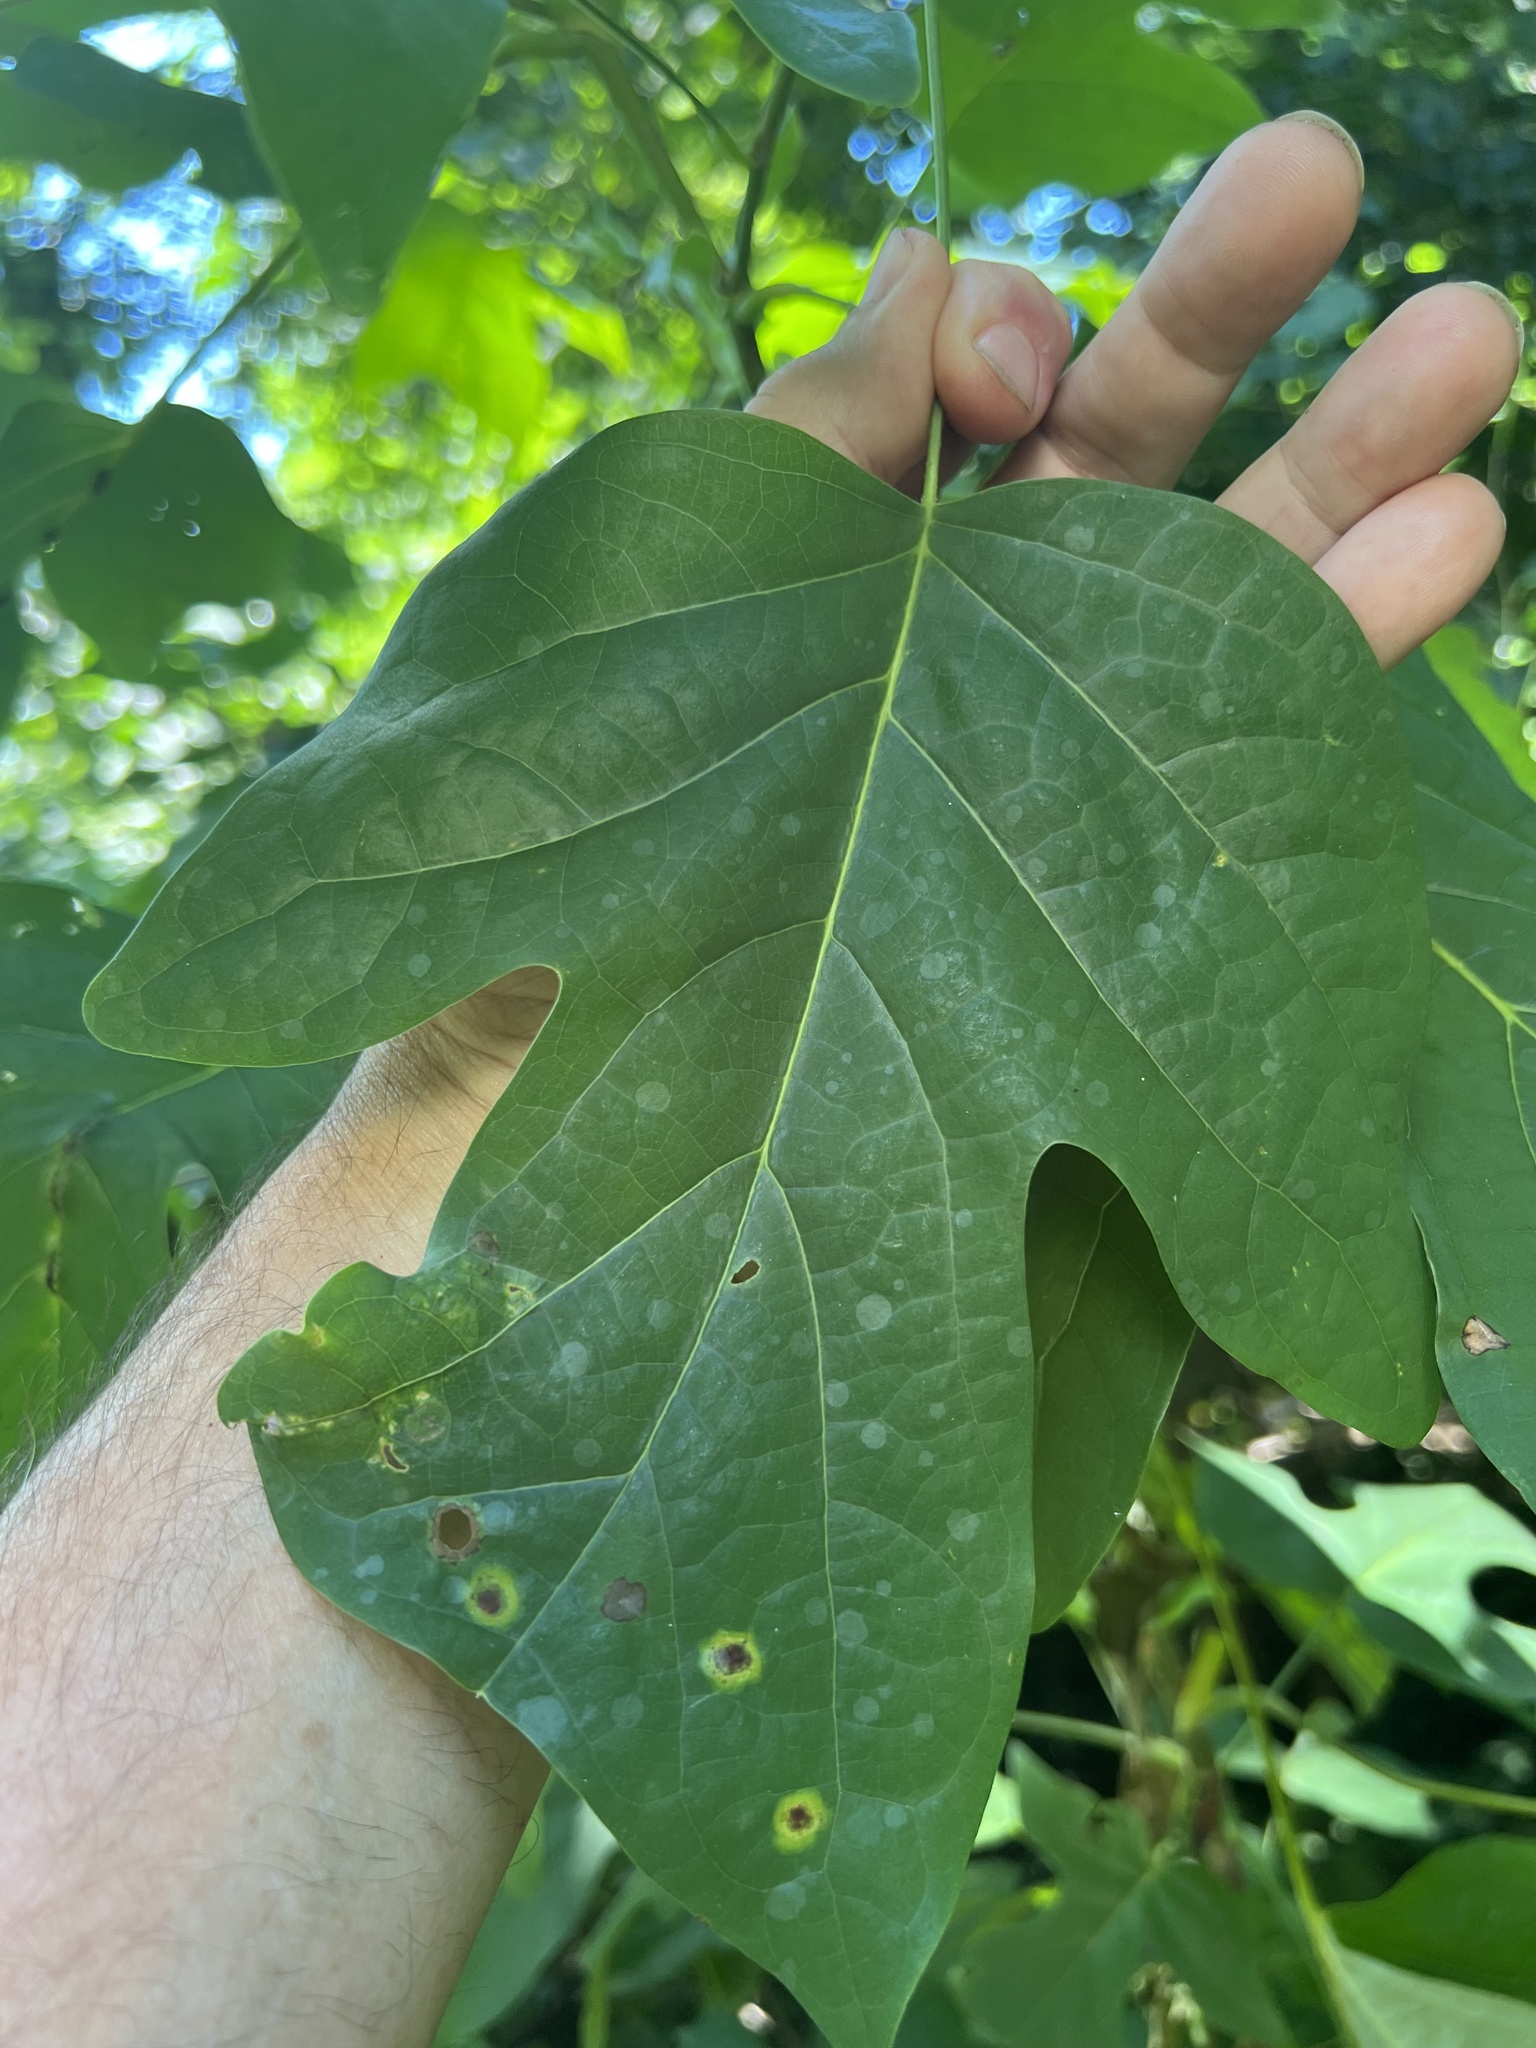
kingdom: Animalia
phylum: Arthropoda
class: Insecta
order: Diptera
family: Cecidomyiidae
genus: Resseliella
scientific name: Resseliella liriodendri
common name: Tulip tree leaf spot gall midge
